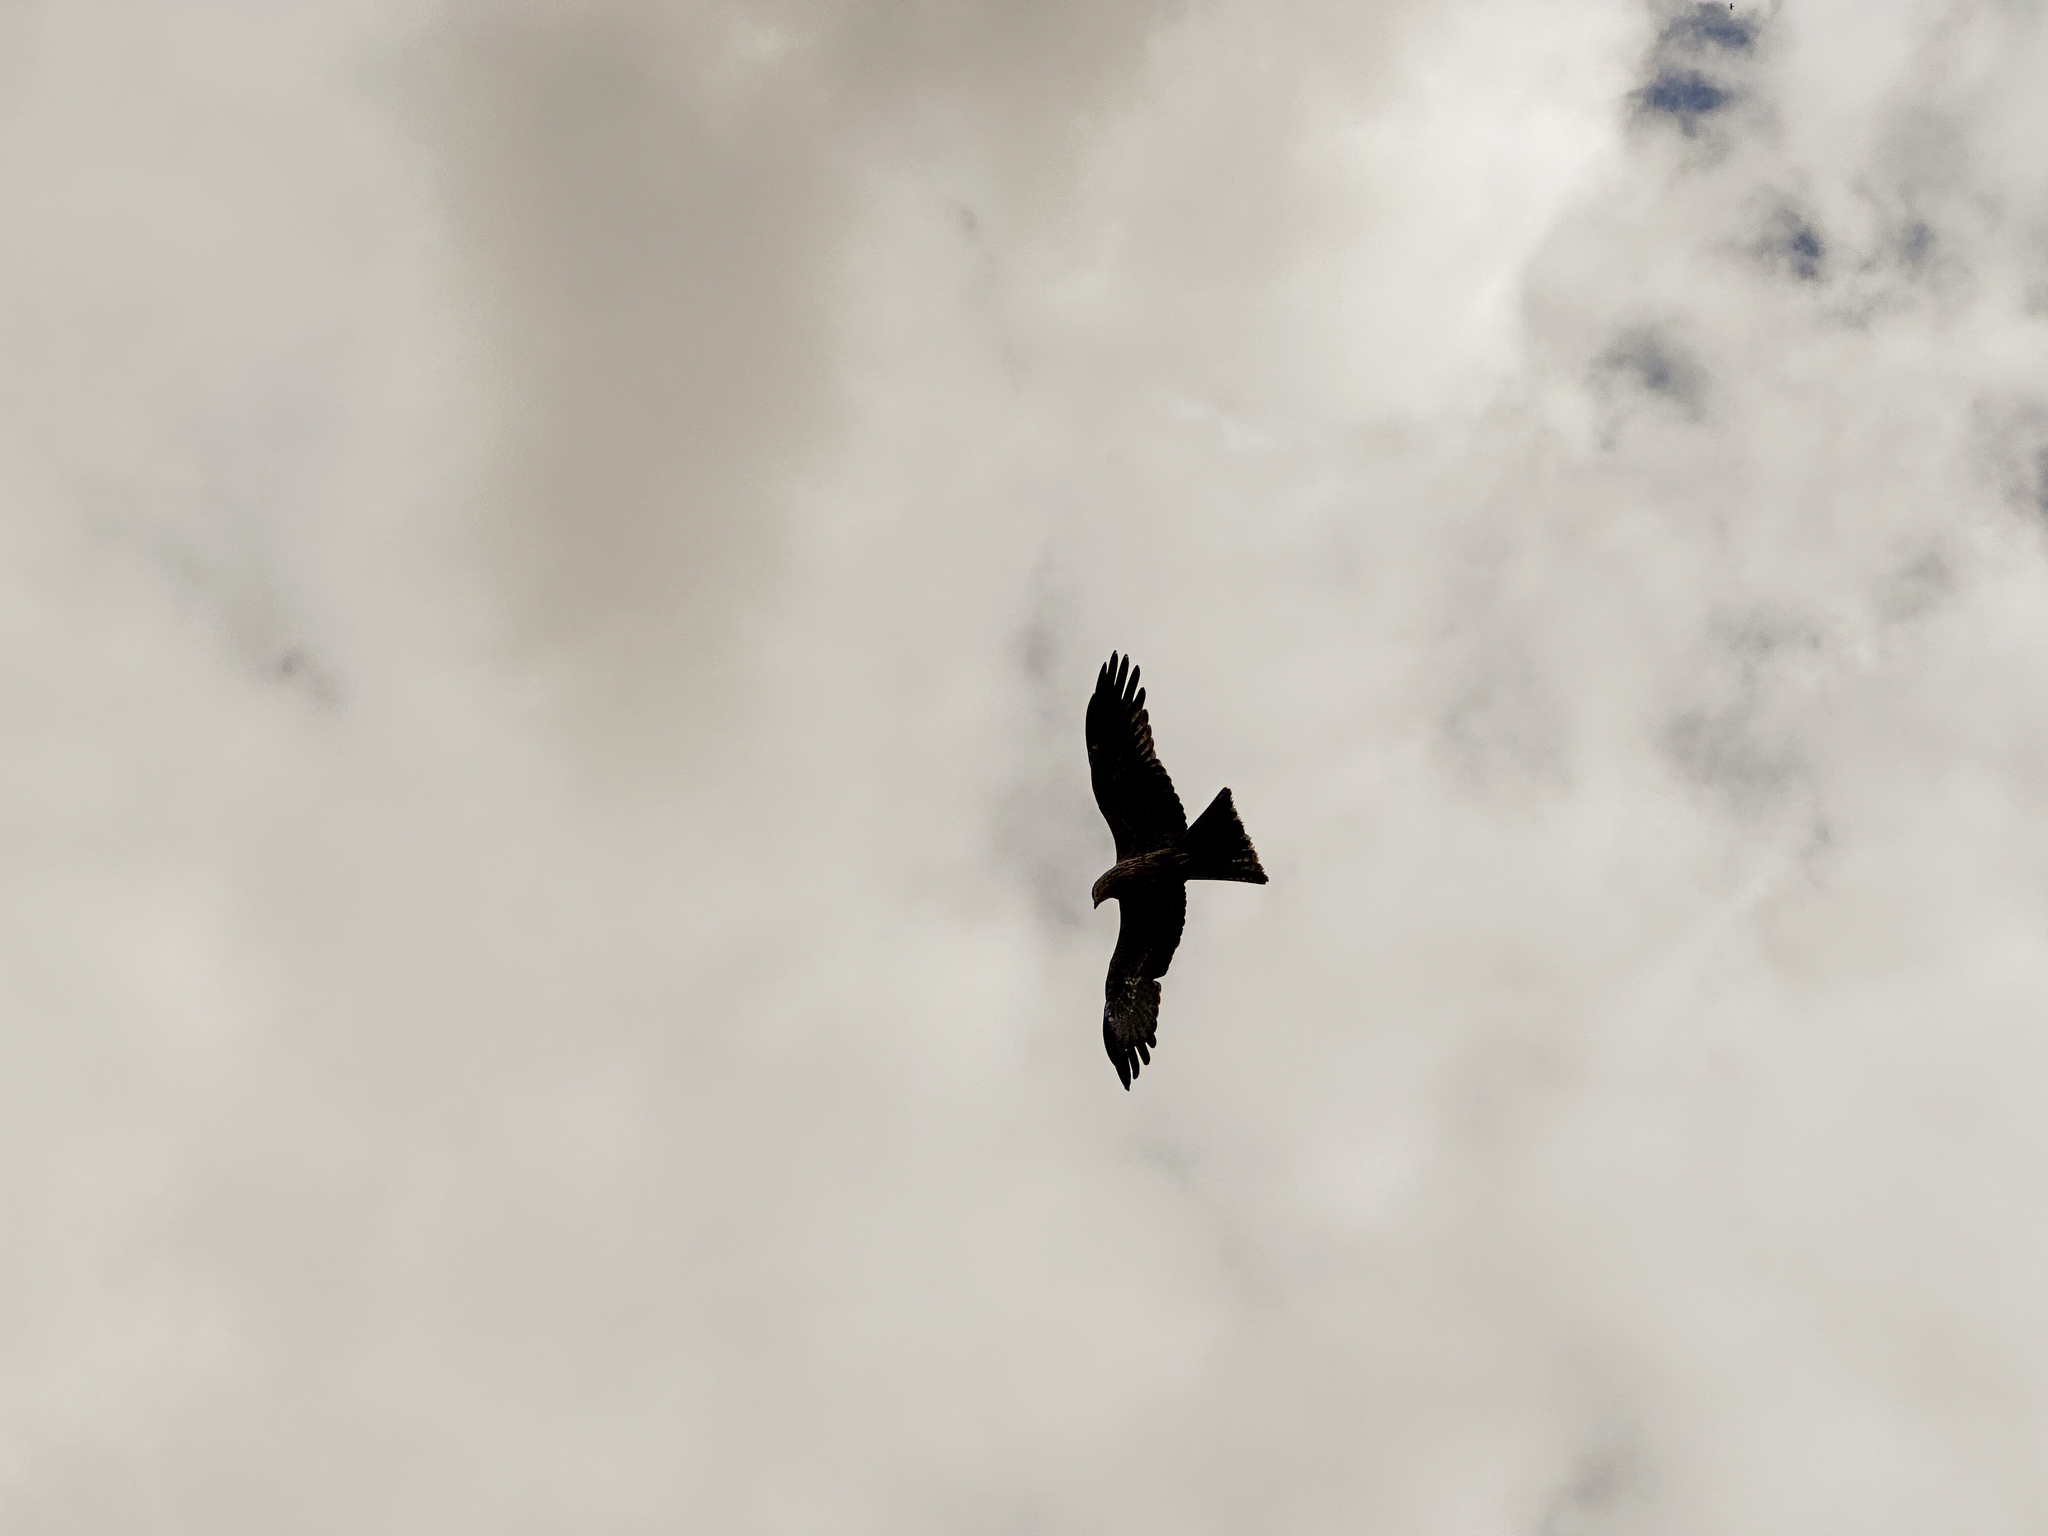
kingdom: Animalia
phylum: Chordata
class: Aves
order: Accipitriformes
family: Accipitridae
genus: Milvus
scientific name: Milvus migrans
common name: Black kite
